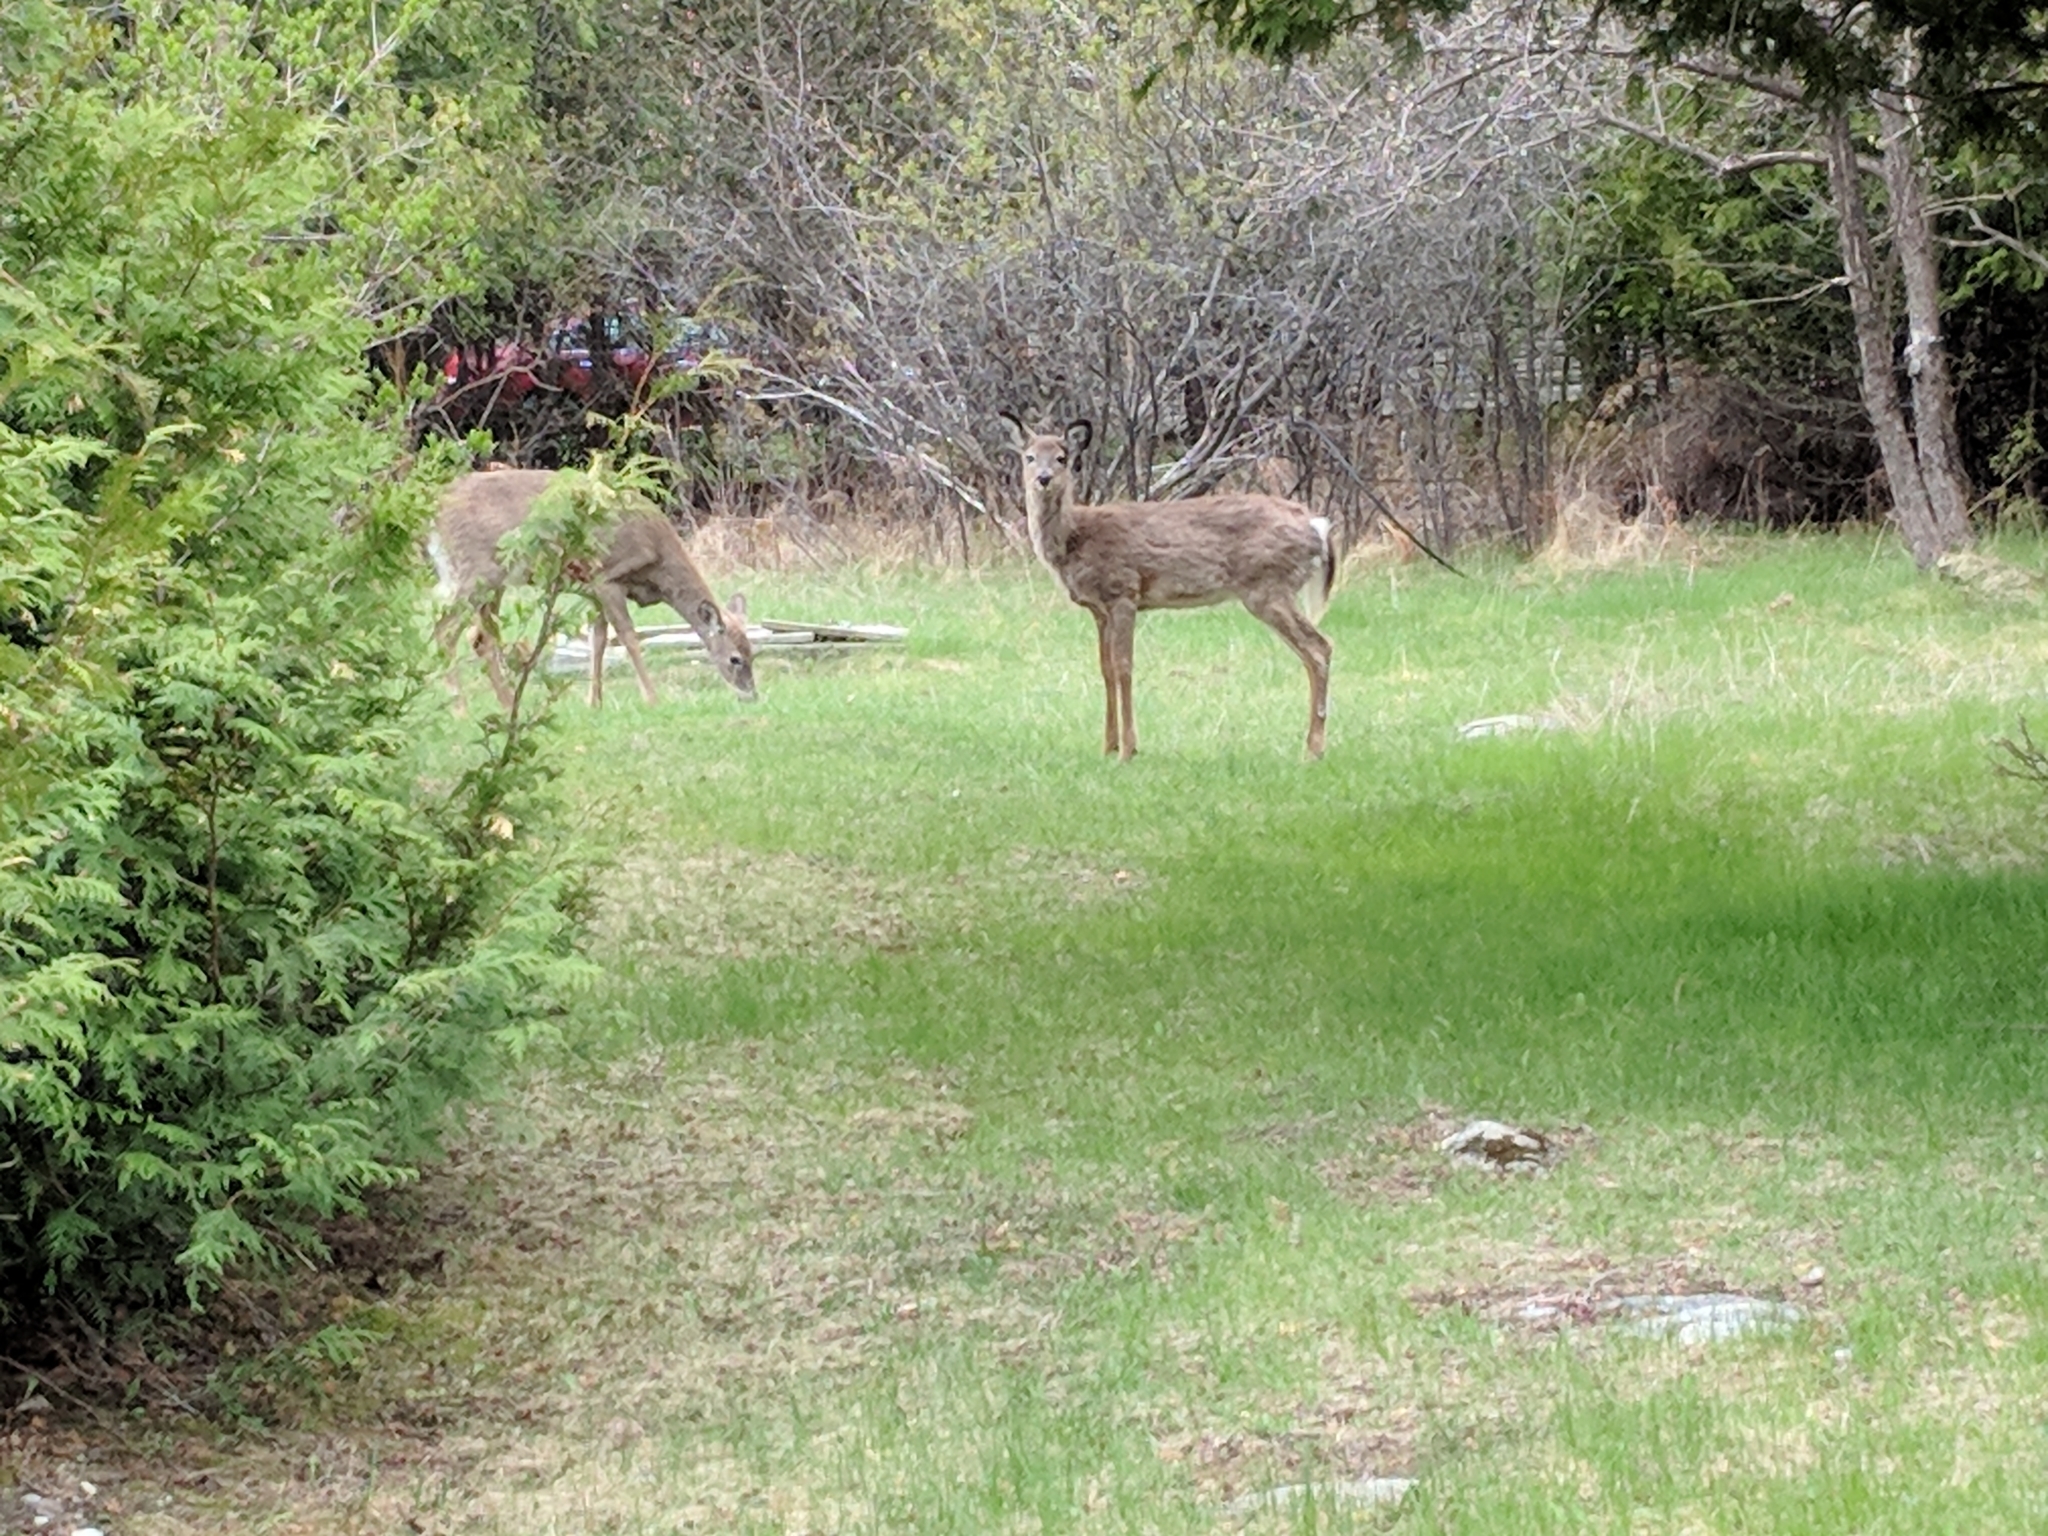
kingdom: Animalia
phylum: Chordata
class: Mammalia
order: Artiodactyla
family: Cervidae
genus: Odocoileus
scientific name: Odocoileus virginianus
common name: White-tailed deer
